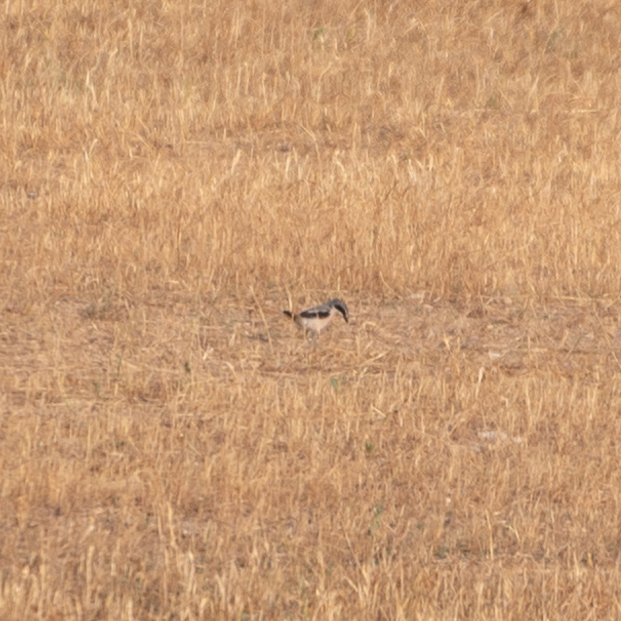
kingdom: Animalia
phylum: Chordata
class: Aves
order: Passeriformes
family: Laniidae
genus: Lanius
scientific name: Lanius meridionalis
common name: Iberian grey shrike
